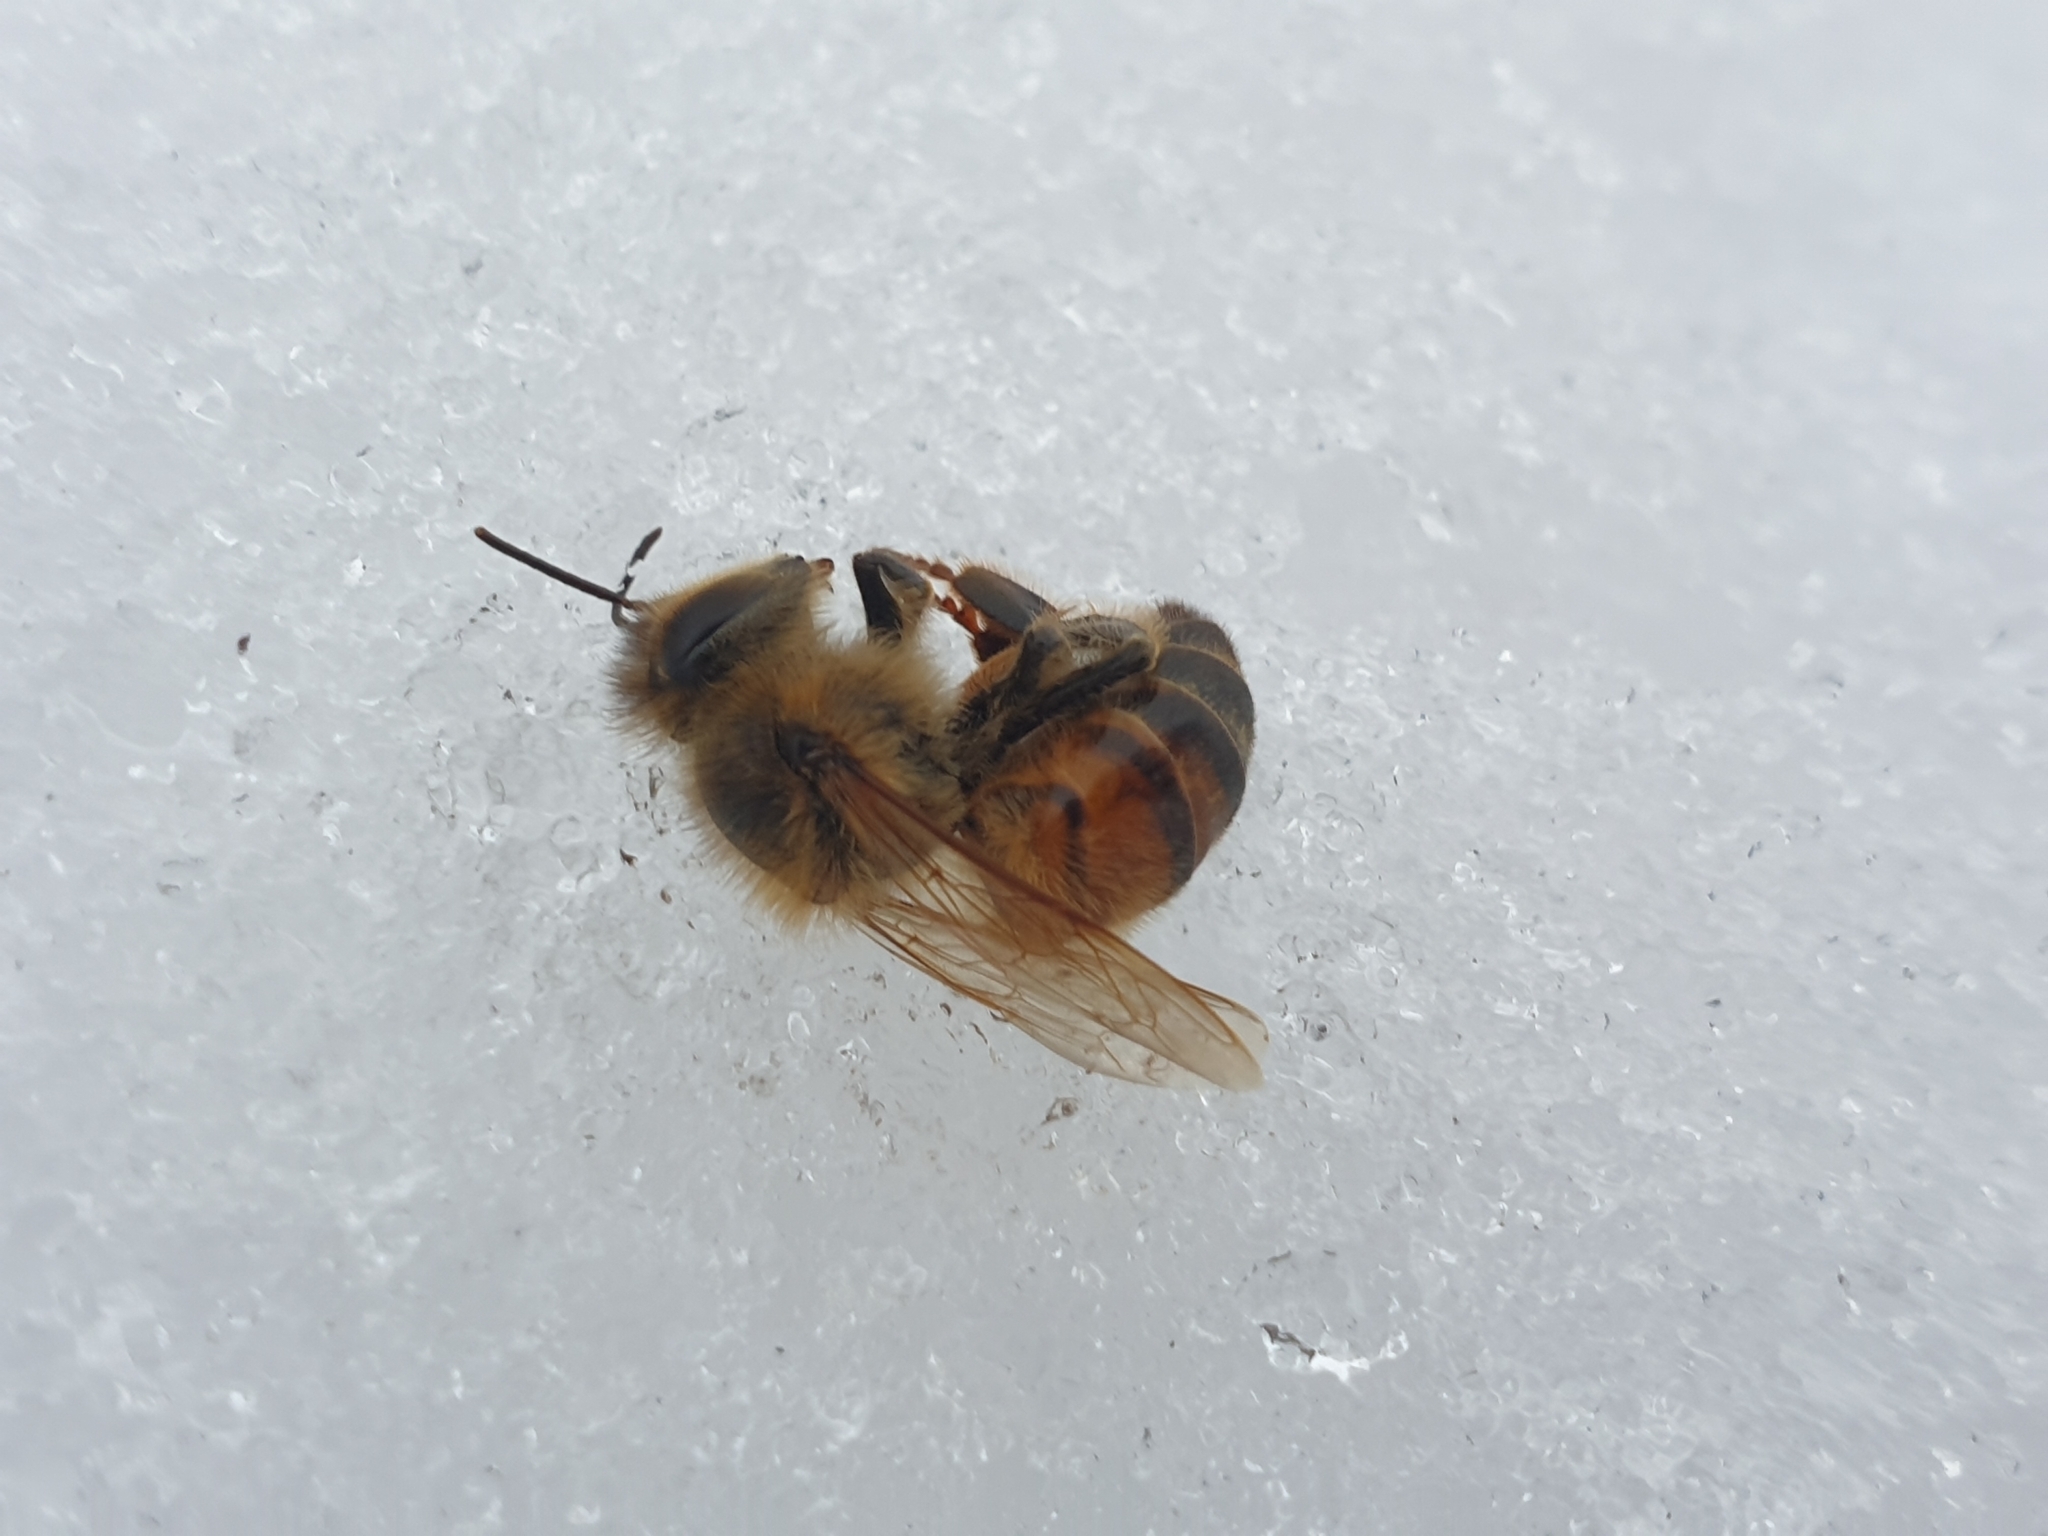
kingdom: Animalia
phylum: Arthropoda
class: Insecta
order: Hymenoptera
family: Apidae
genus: Apis
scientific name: Apis mellifera
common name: Honey bee
